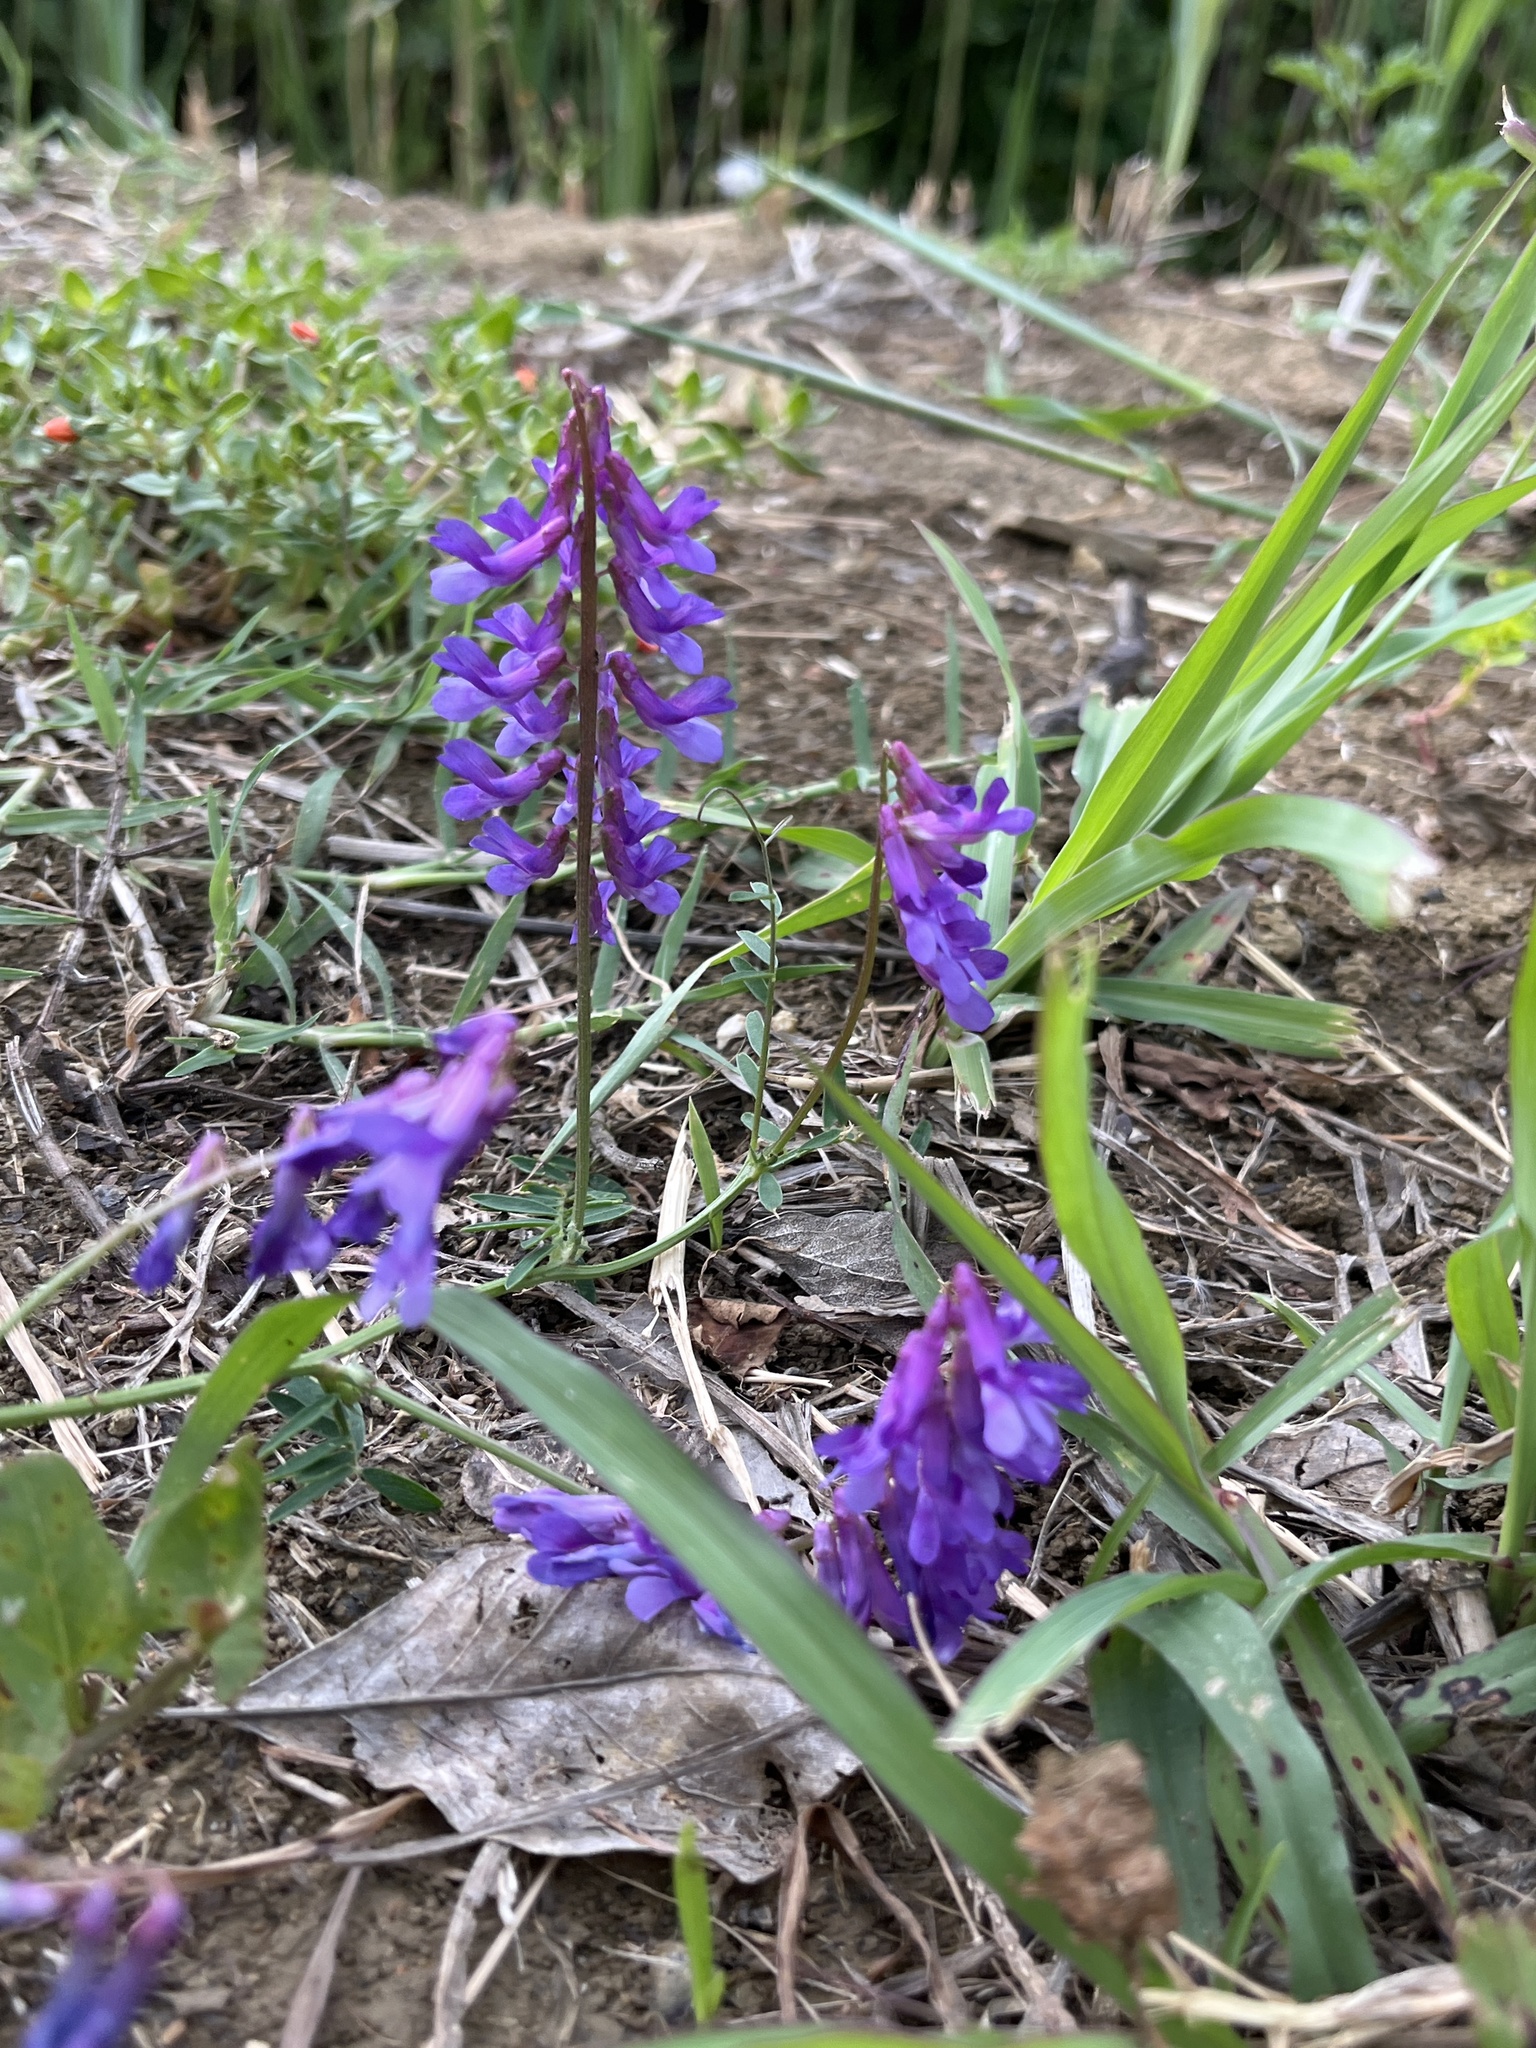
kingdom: Plantae
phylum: Tracheophyta
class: Magnoliopsida
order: Fabales
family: Fabaceae
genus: Vicia
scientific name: Vicia villosa
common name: Fodder vetch
